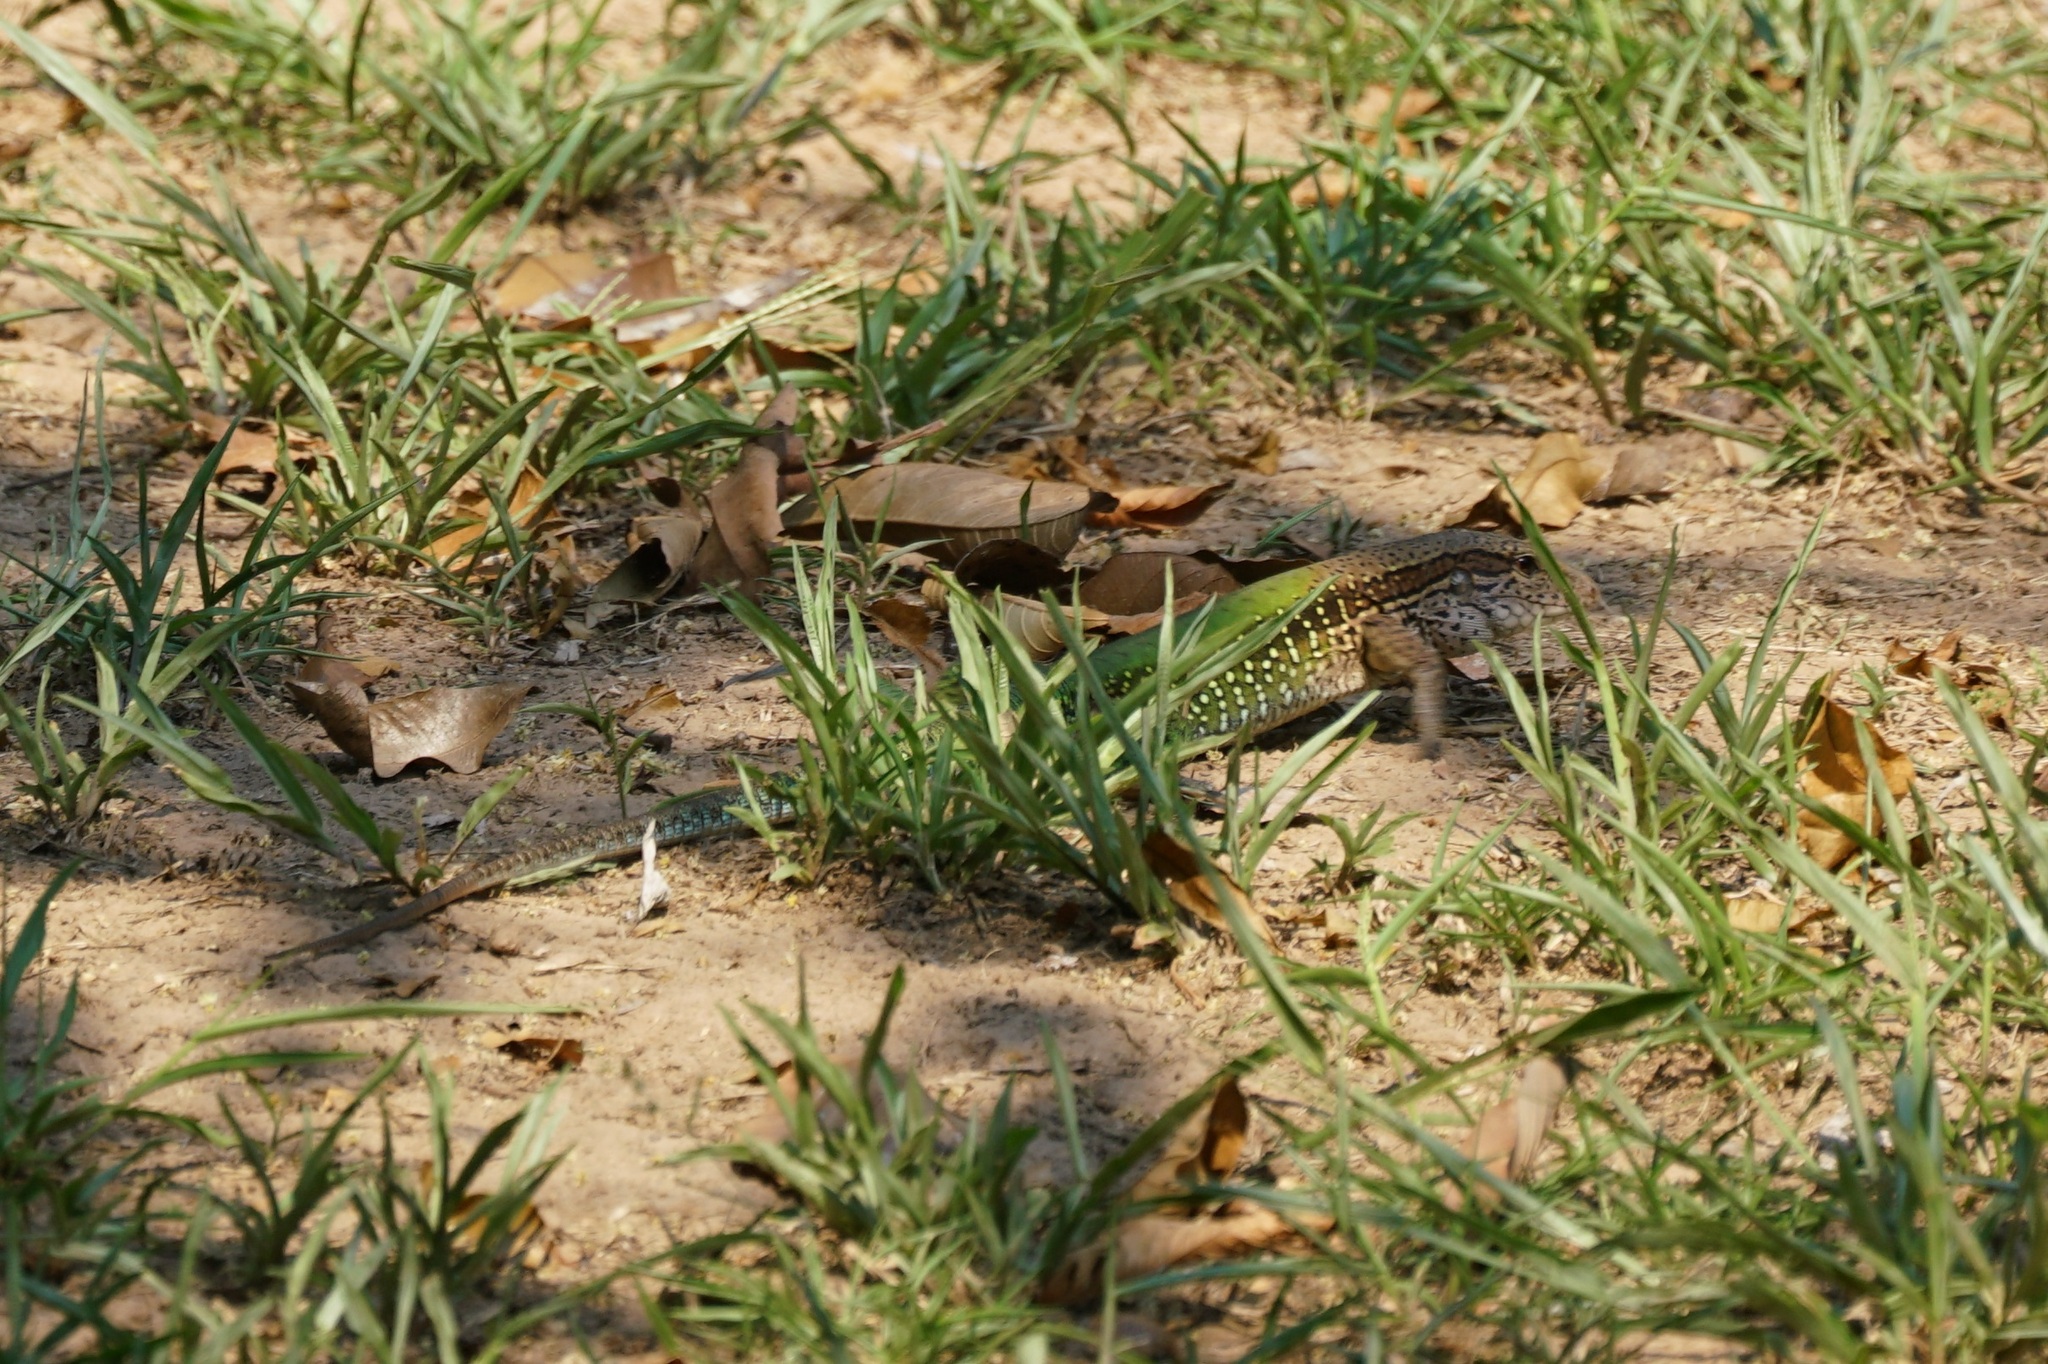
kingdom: Animalia
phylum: Chordata
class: Squamata
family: Teiidae
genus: Ameiva
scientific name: Ameiva ameiva
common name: Giant ameiva
